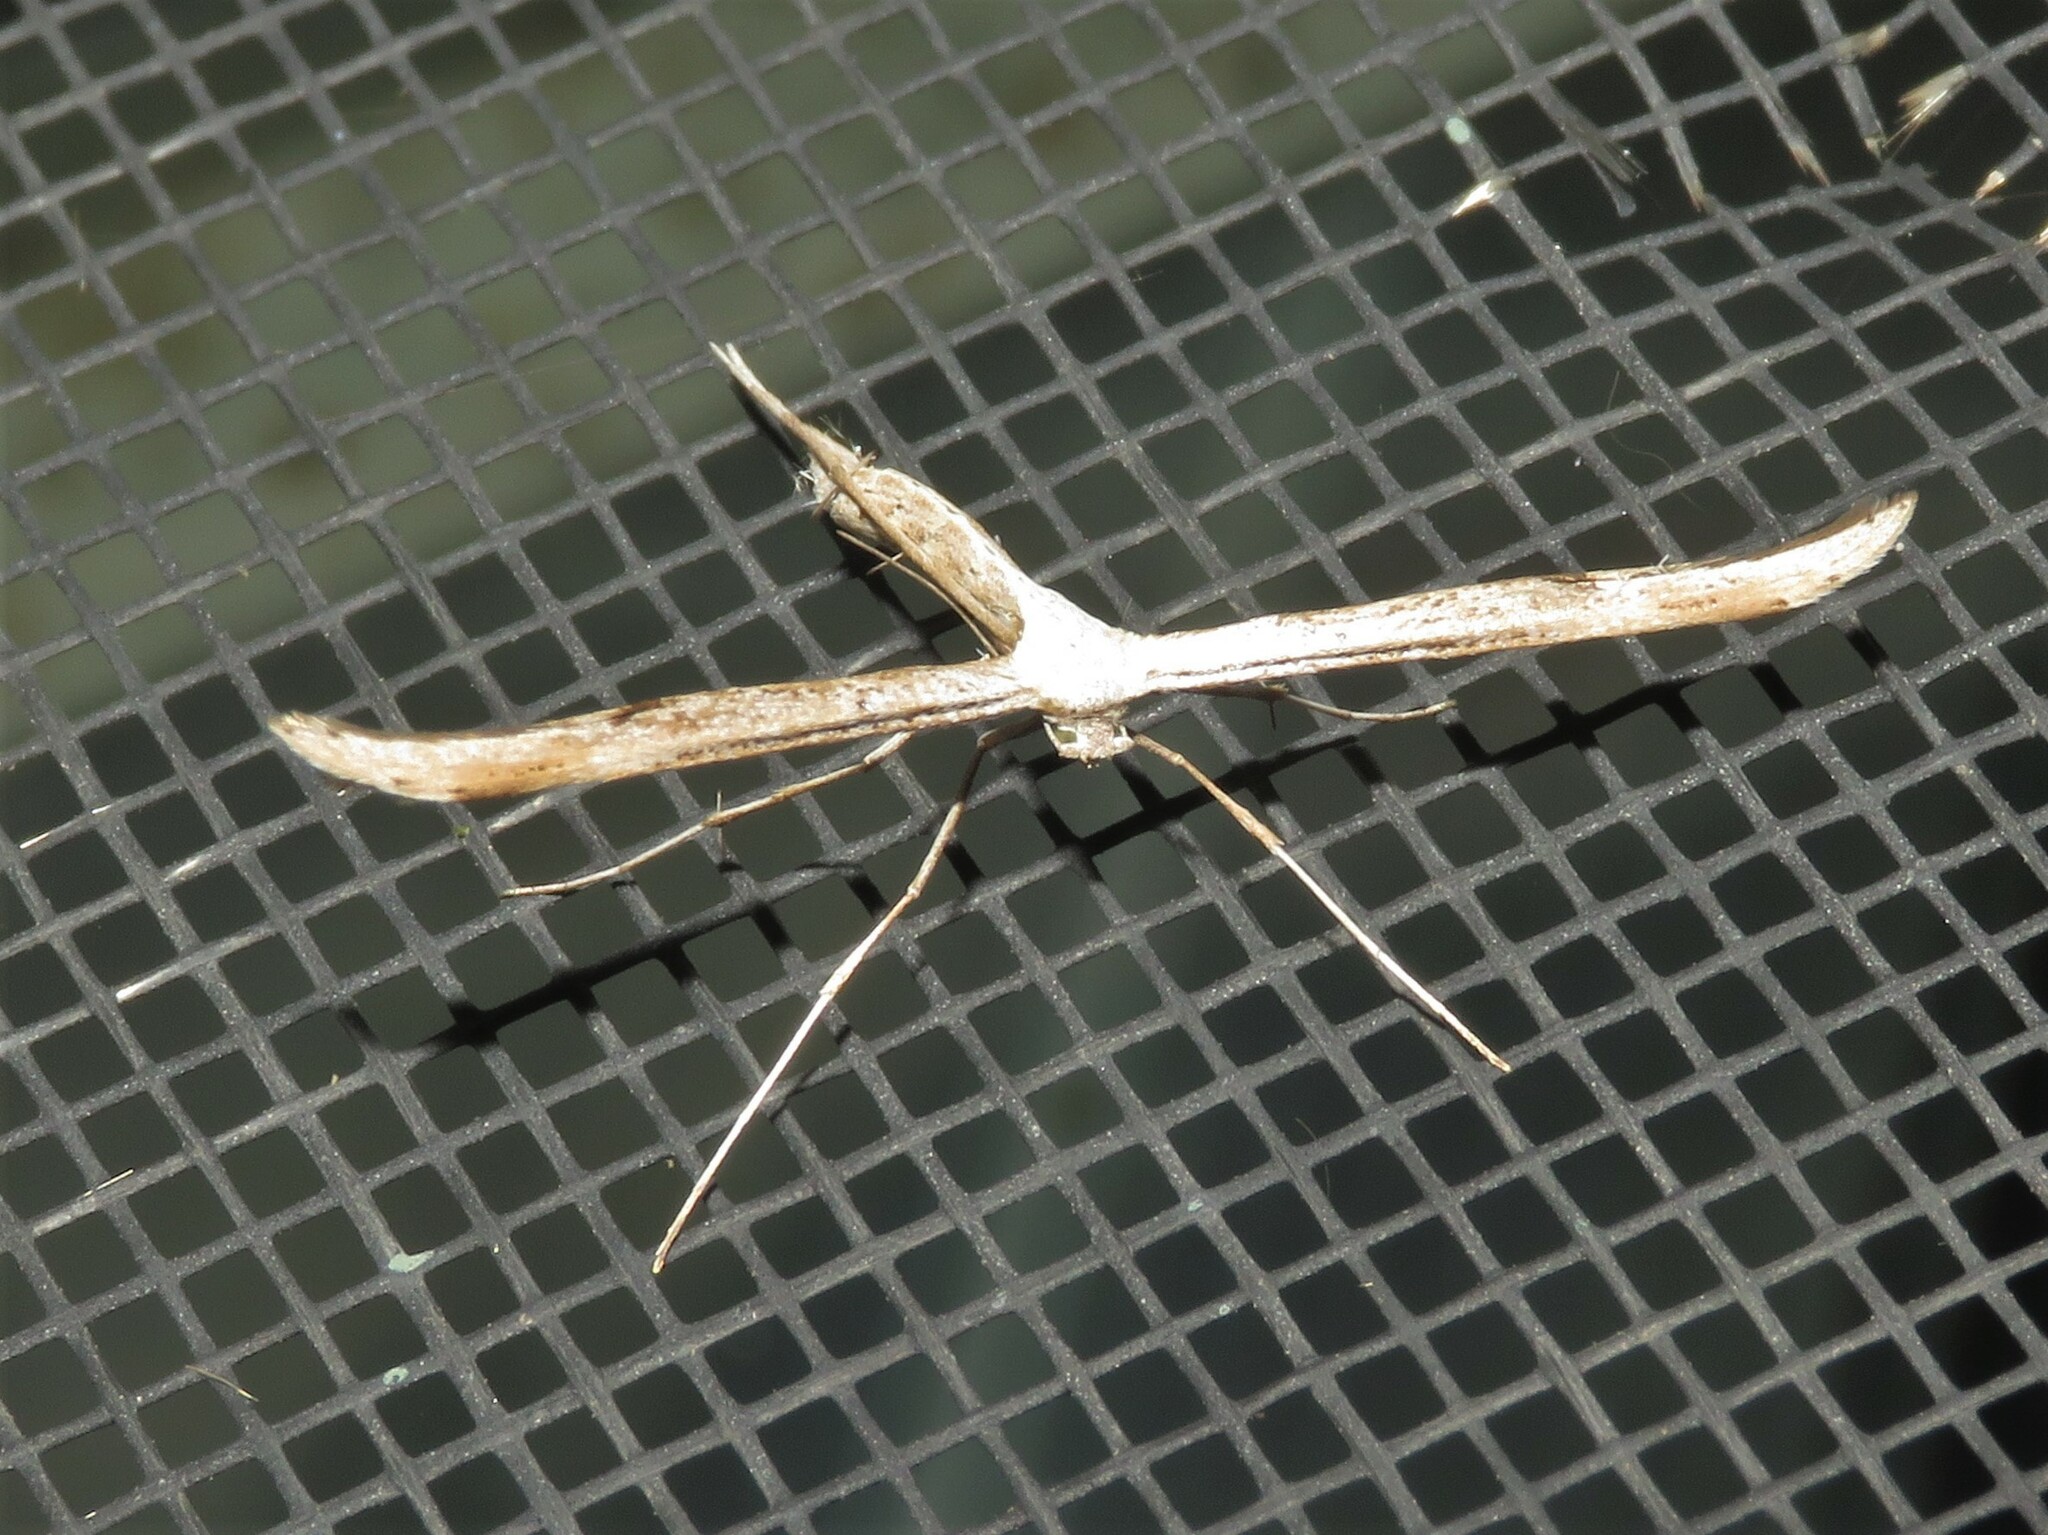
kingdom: Animalia
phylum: Arthropoda
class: Insecta
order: Lepidoptera
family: Pterophoridae
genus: Emmelina
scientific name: Emmelina monodactyla
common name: Common plume
